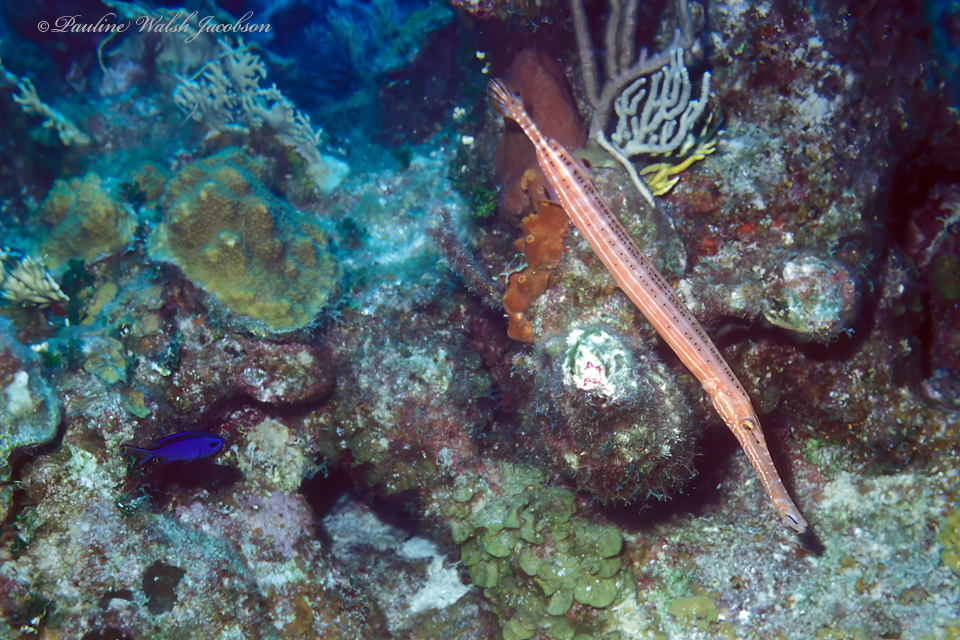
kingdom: Animalia
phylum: Chordata
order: Syngnathiformes
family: Aulostomidae
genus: Aulostomus
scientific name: Aulostomus maculatus
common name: West atlantic trumpetfish
